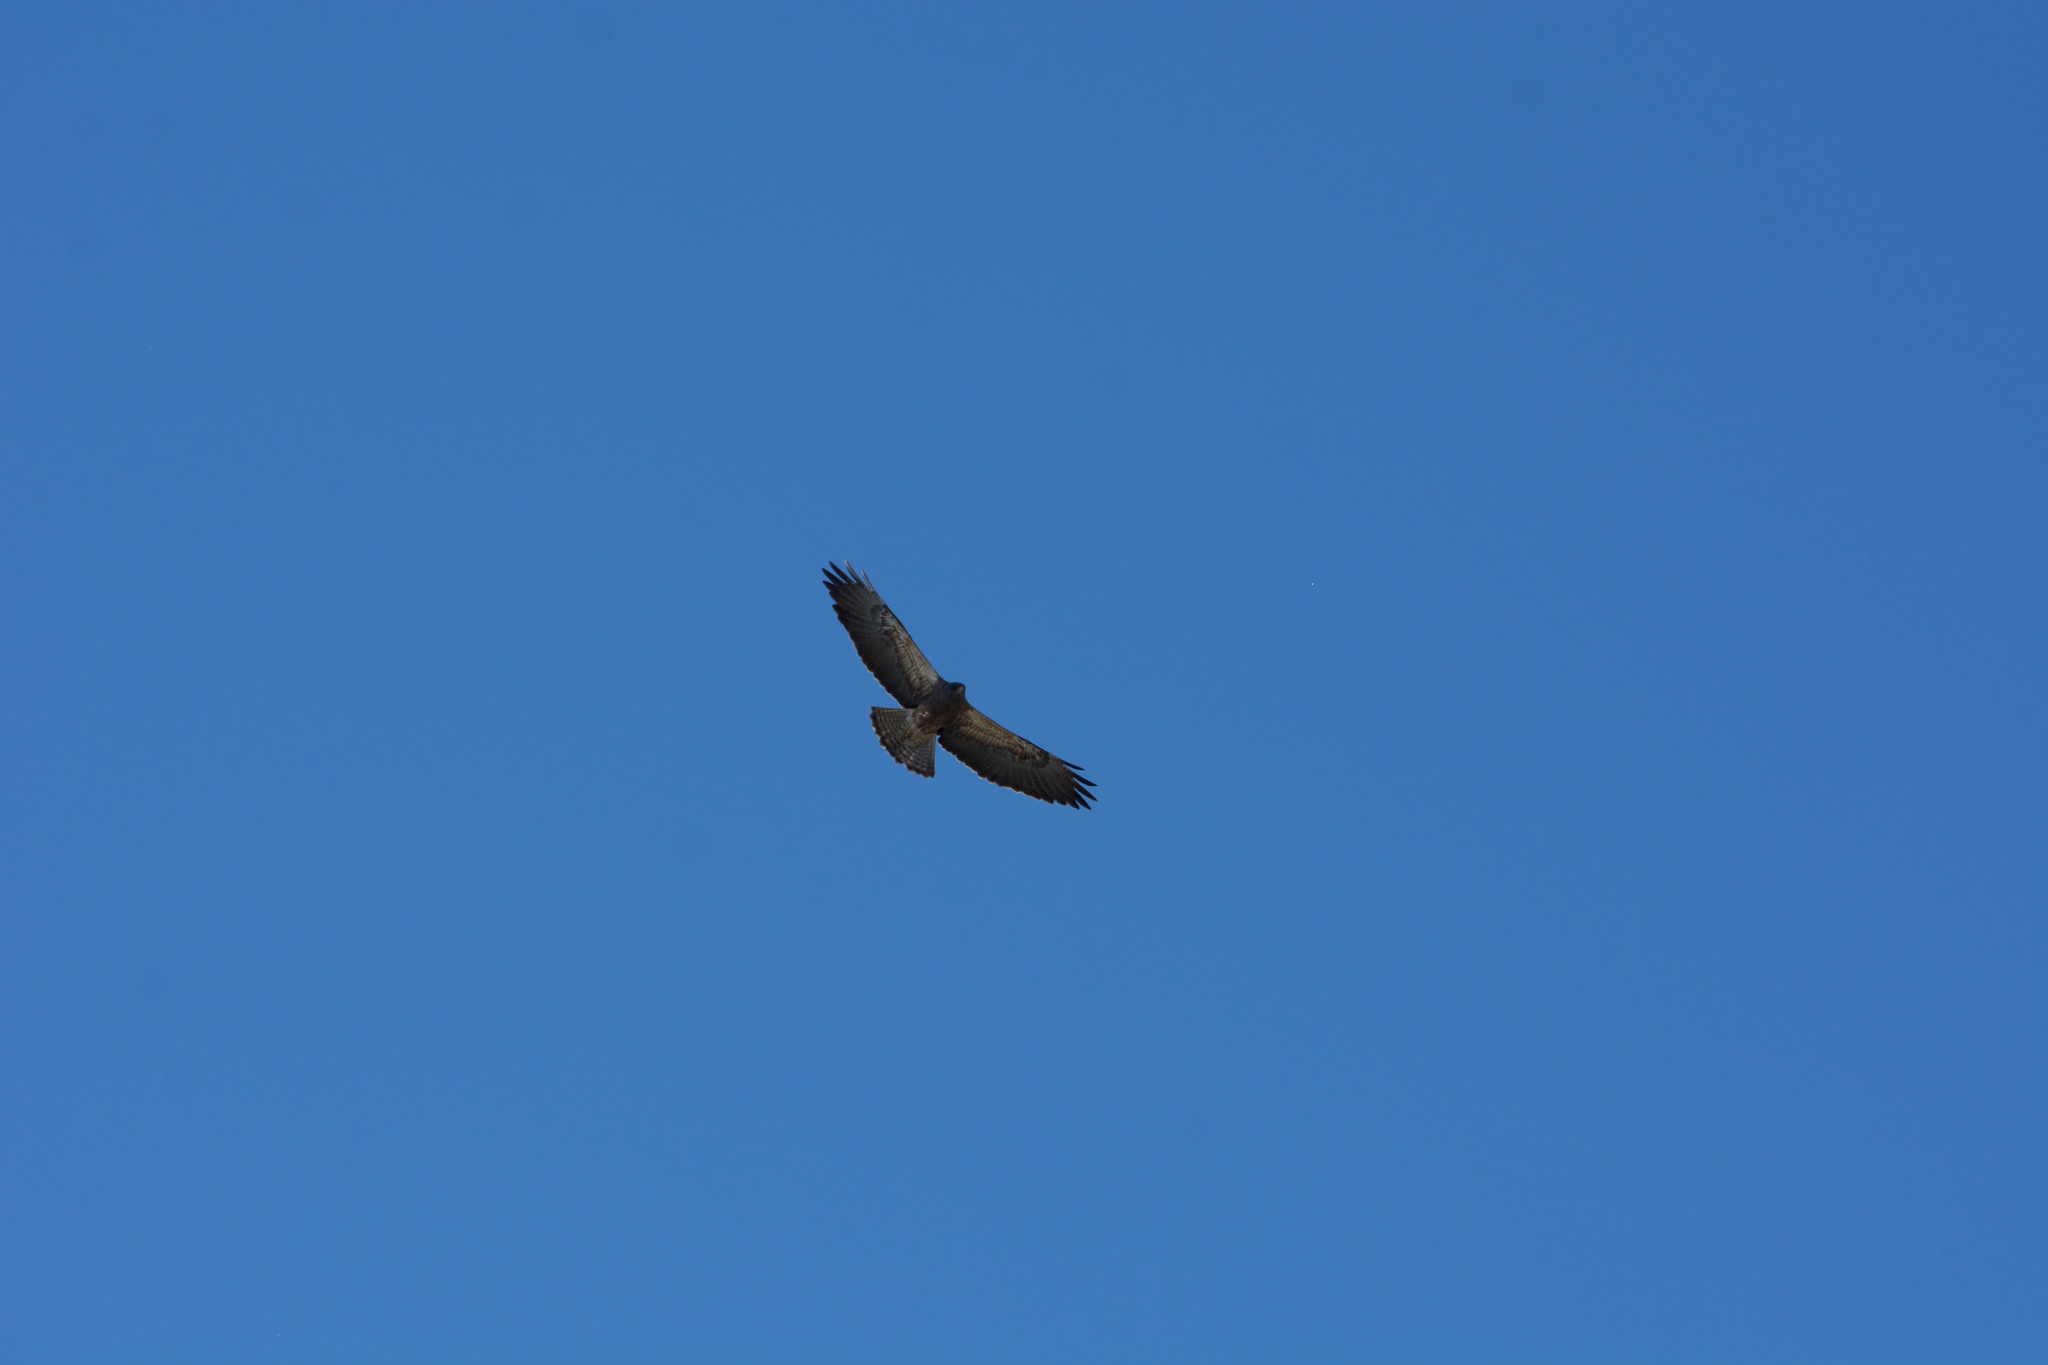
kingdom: Animalia
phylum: Chordata
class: Aves
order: Accipitriformes
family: Accipitridae
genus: Buteo
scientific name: Buteo swainsoni
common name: Swainson's hawk
